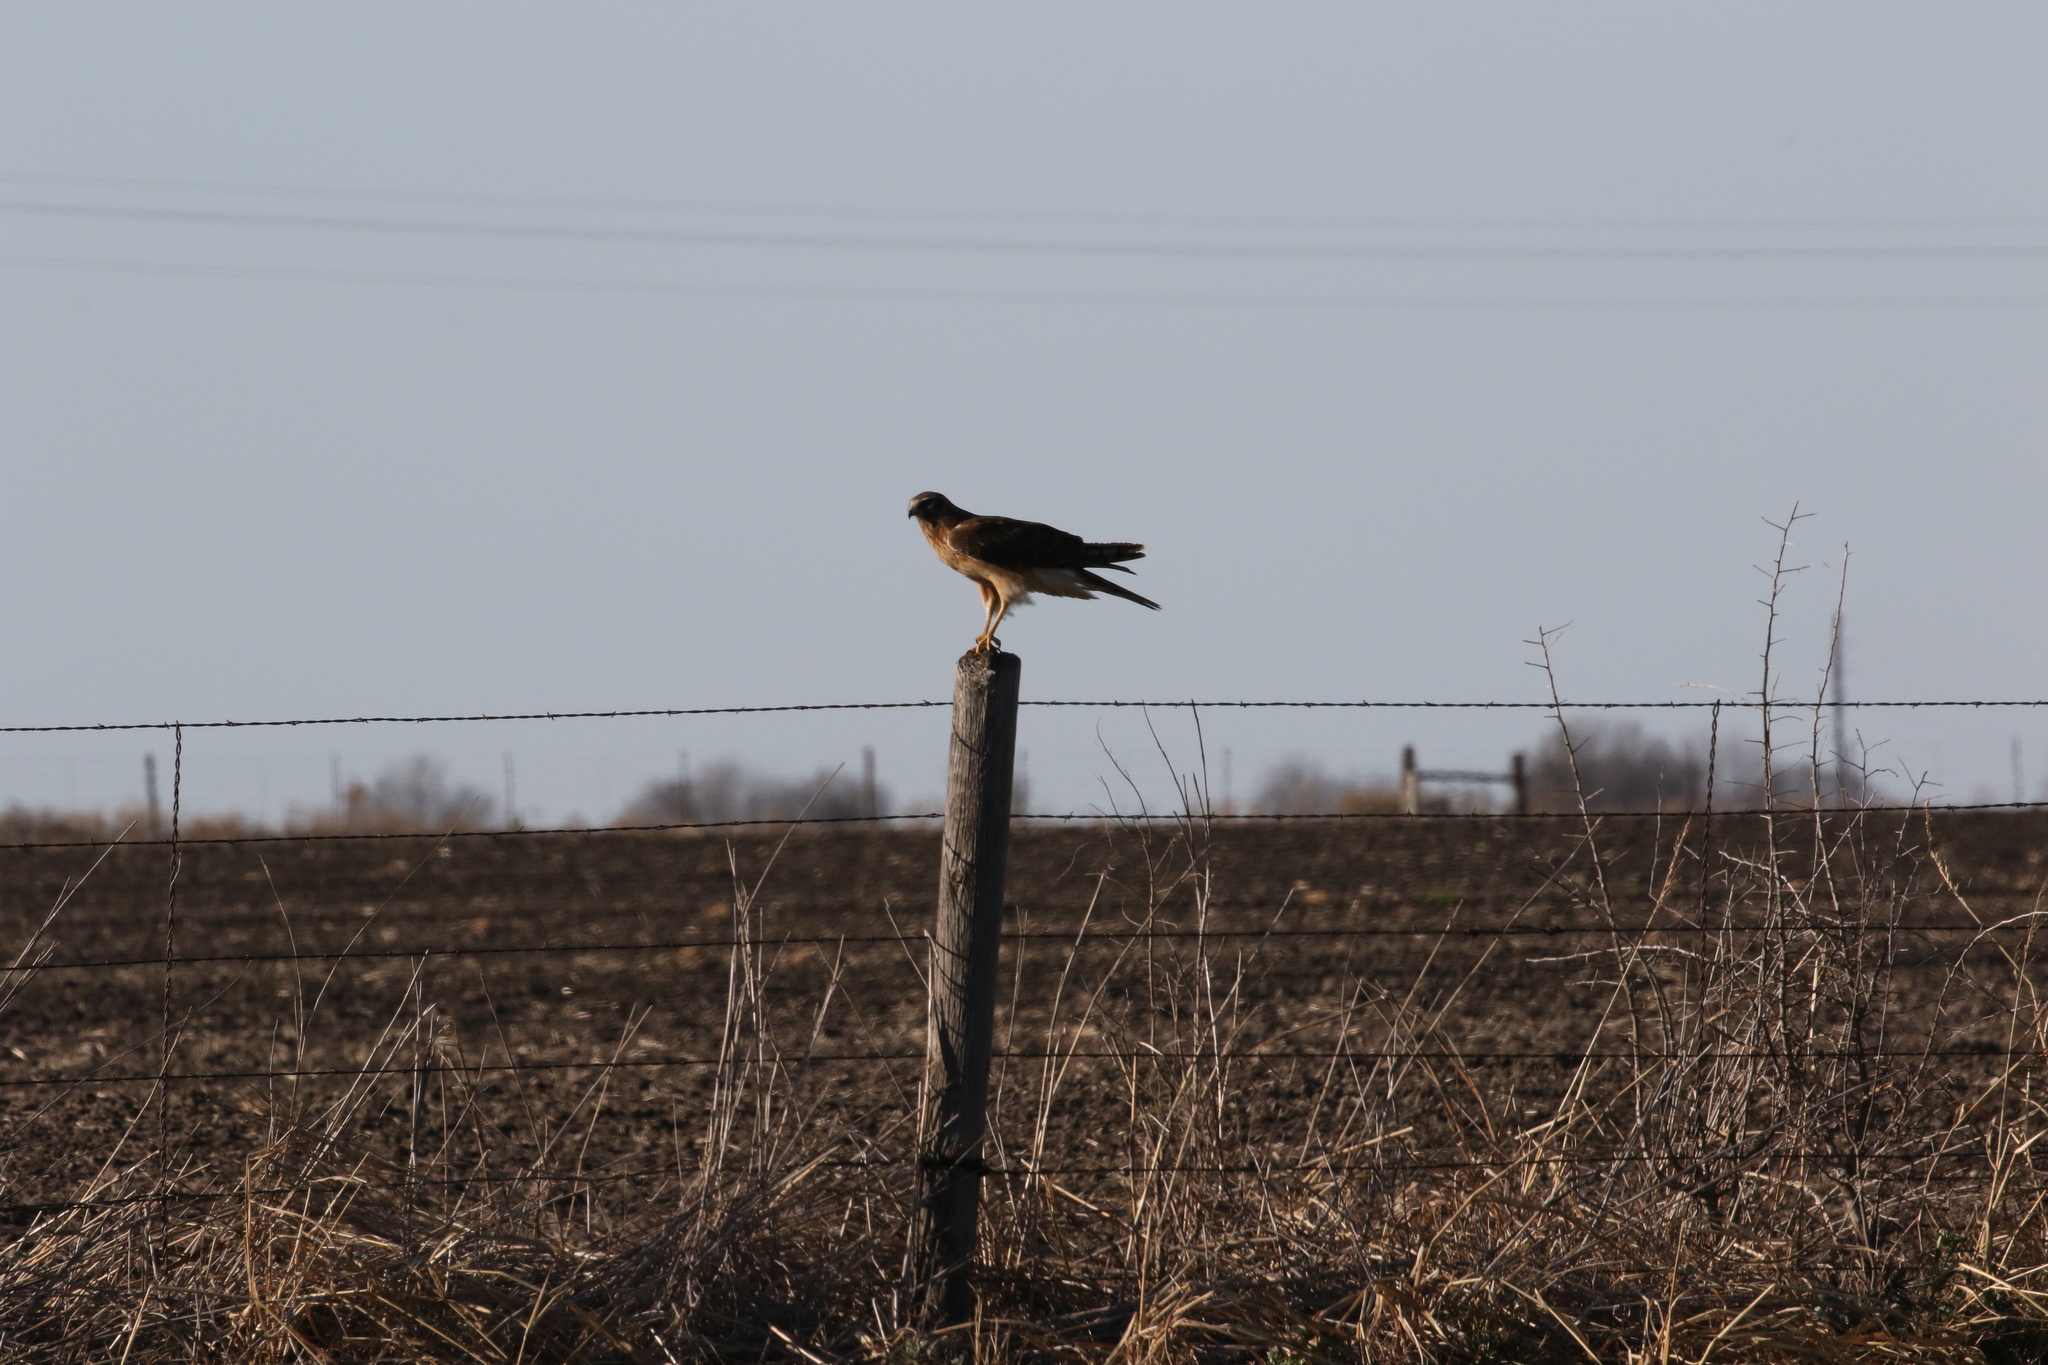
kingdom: Animalia
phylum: Chordata
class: Aves
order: Accipitriformes
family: Accipitridae
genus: Circus
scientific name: Circus cyaneus
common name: Hen harrier
